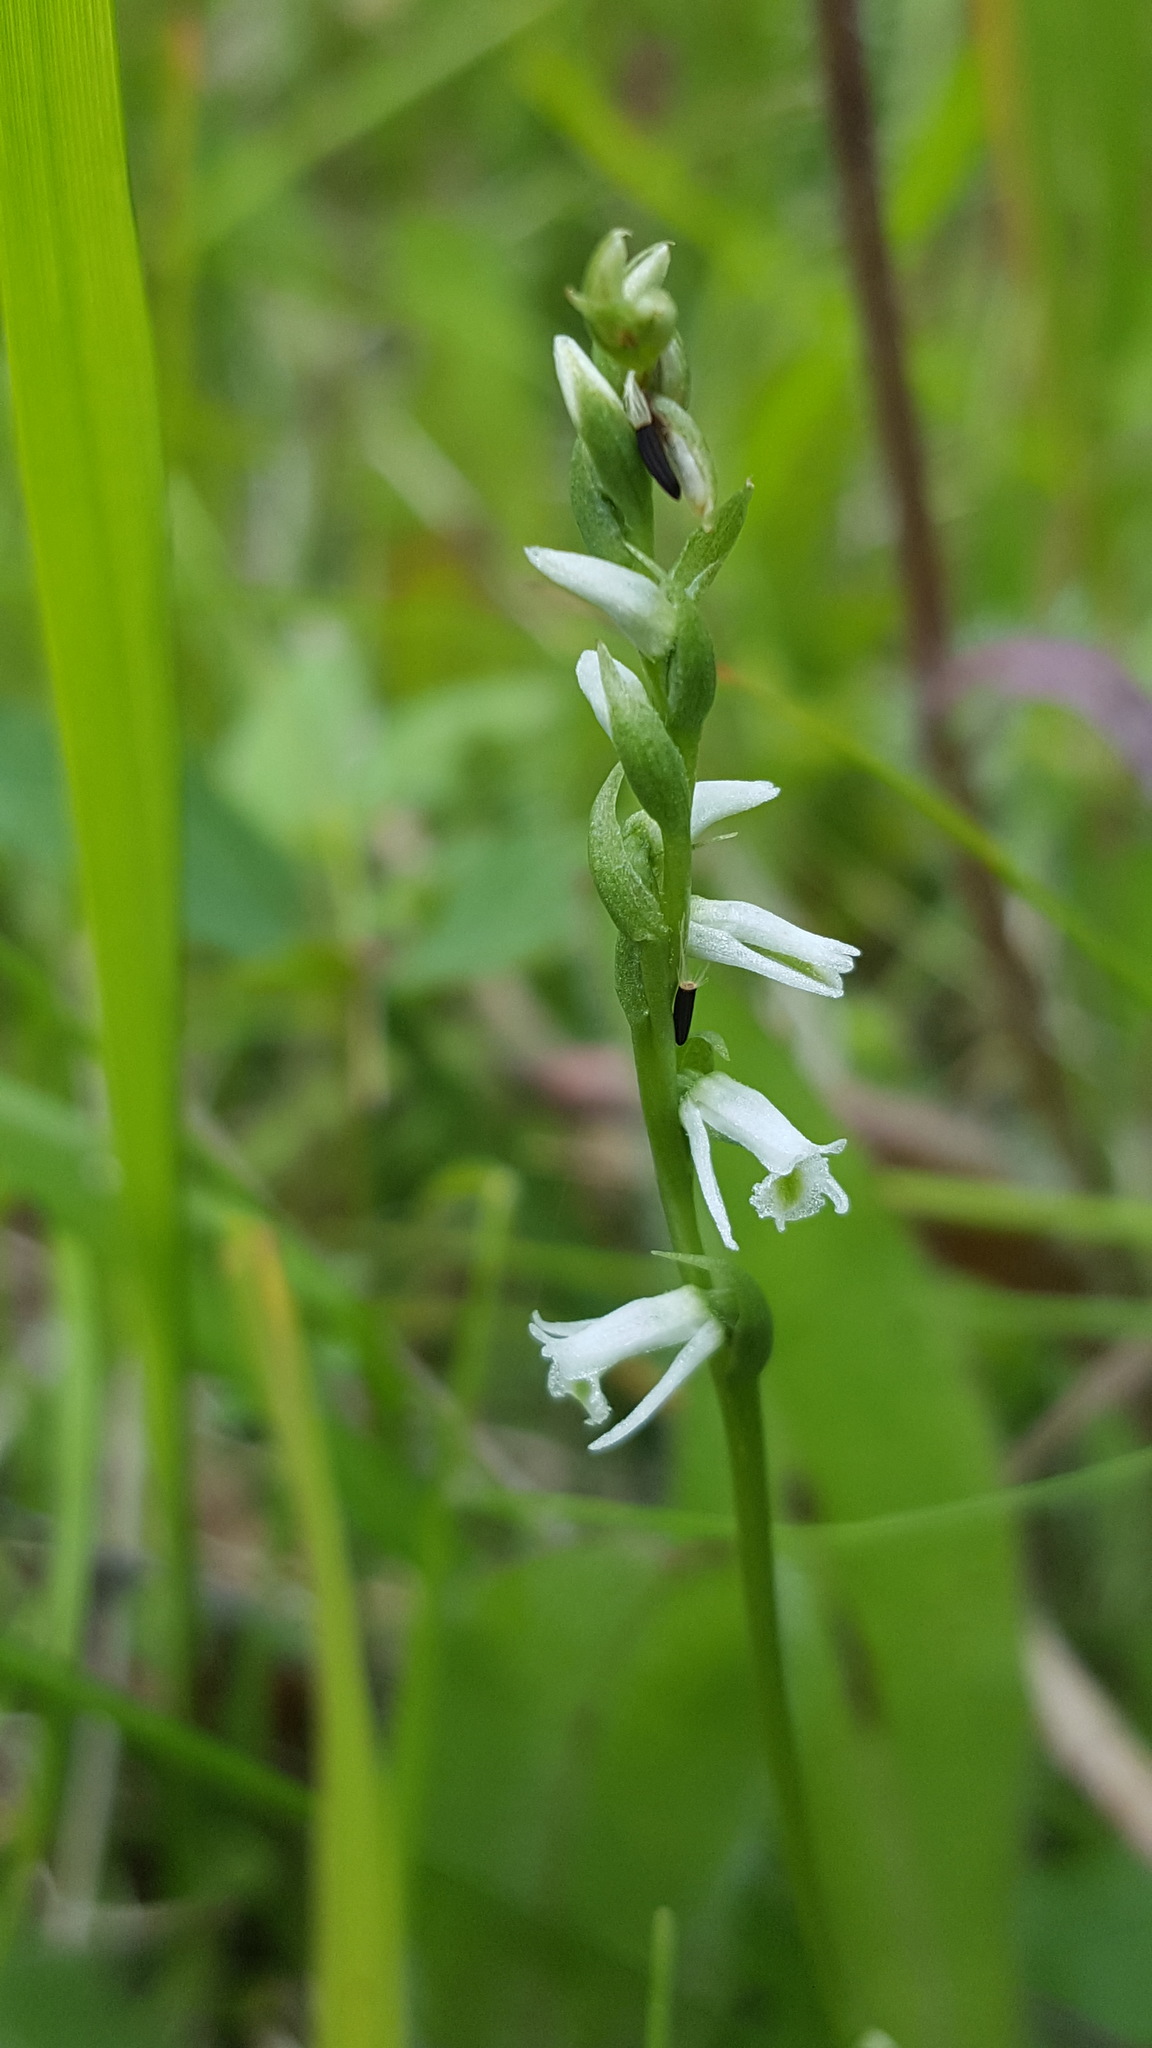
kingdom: Plantae
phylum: Tracheophyta
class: Liliopsida
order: Asparagales
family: Orchidaceae
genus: Spiranthes
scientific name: Spiranthes lacera
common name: Northern slender ladies'-tresses
